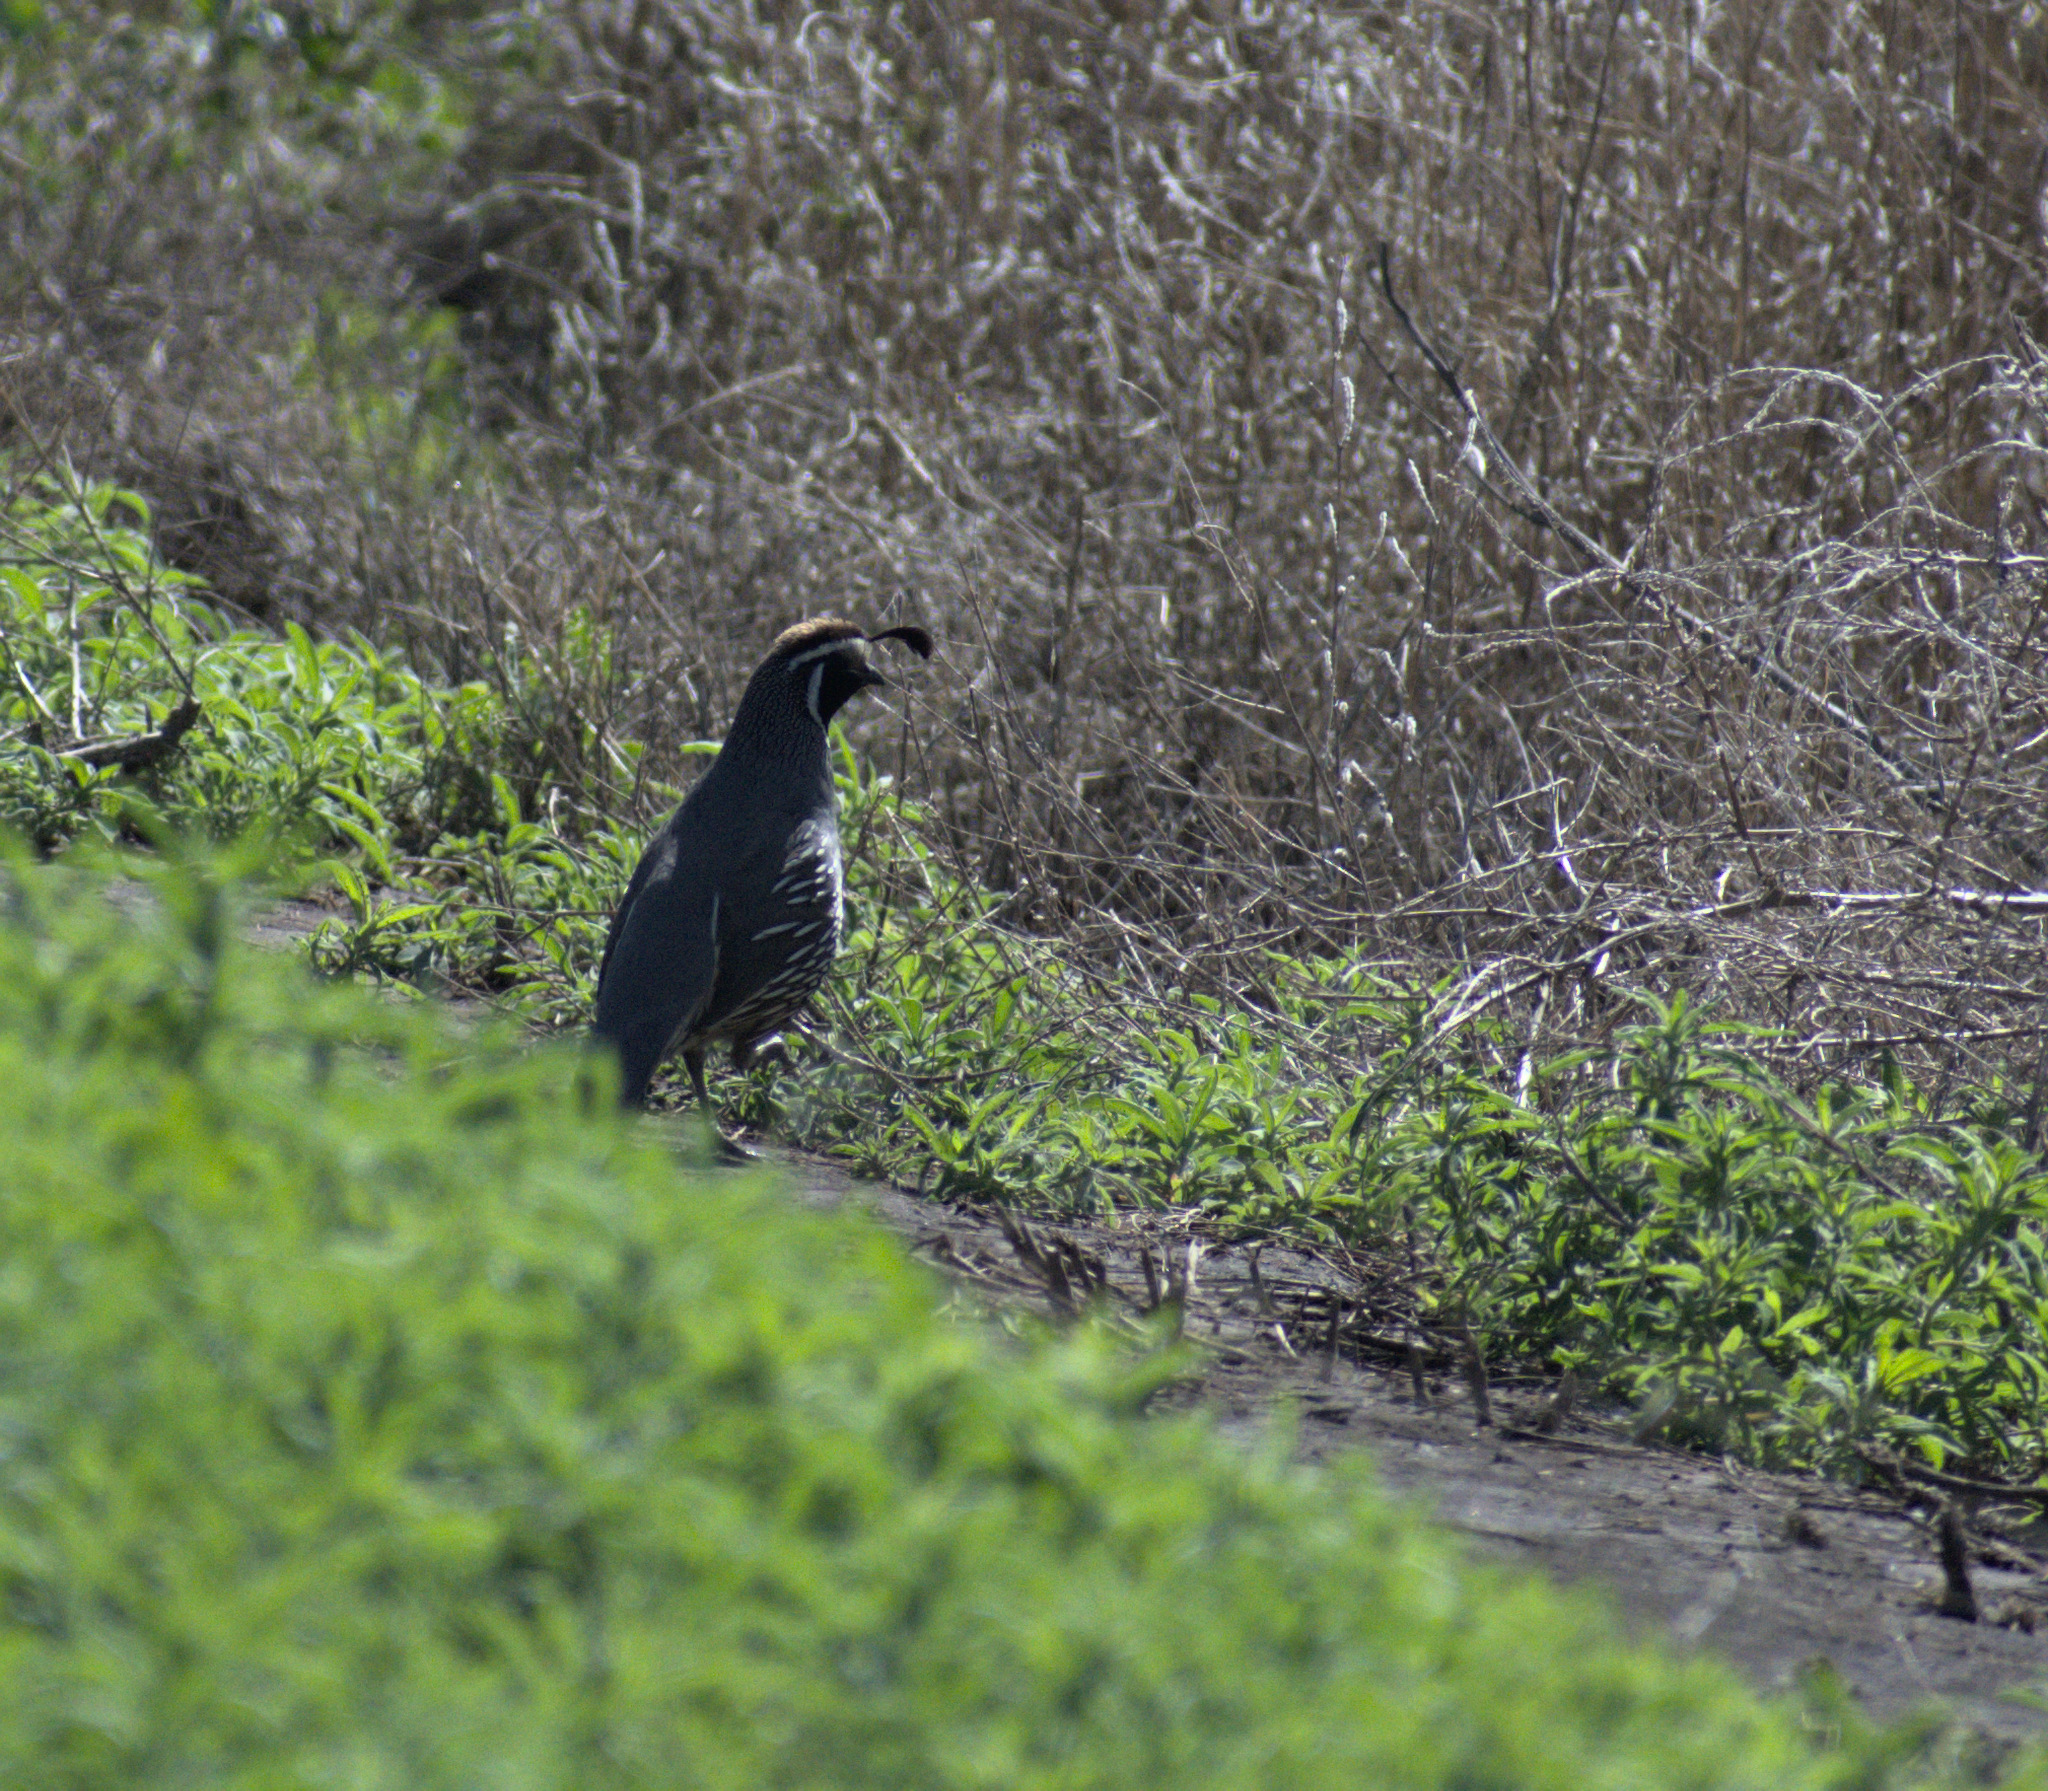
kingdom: Animalia
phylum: Chordata
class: Aves
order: Galliformes
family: Odontophoridae
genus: Callipepla
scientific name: Callipepla californica
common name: California quail
